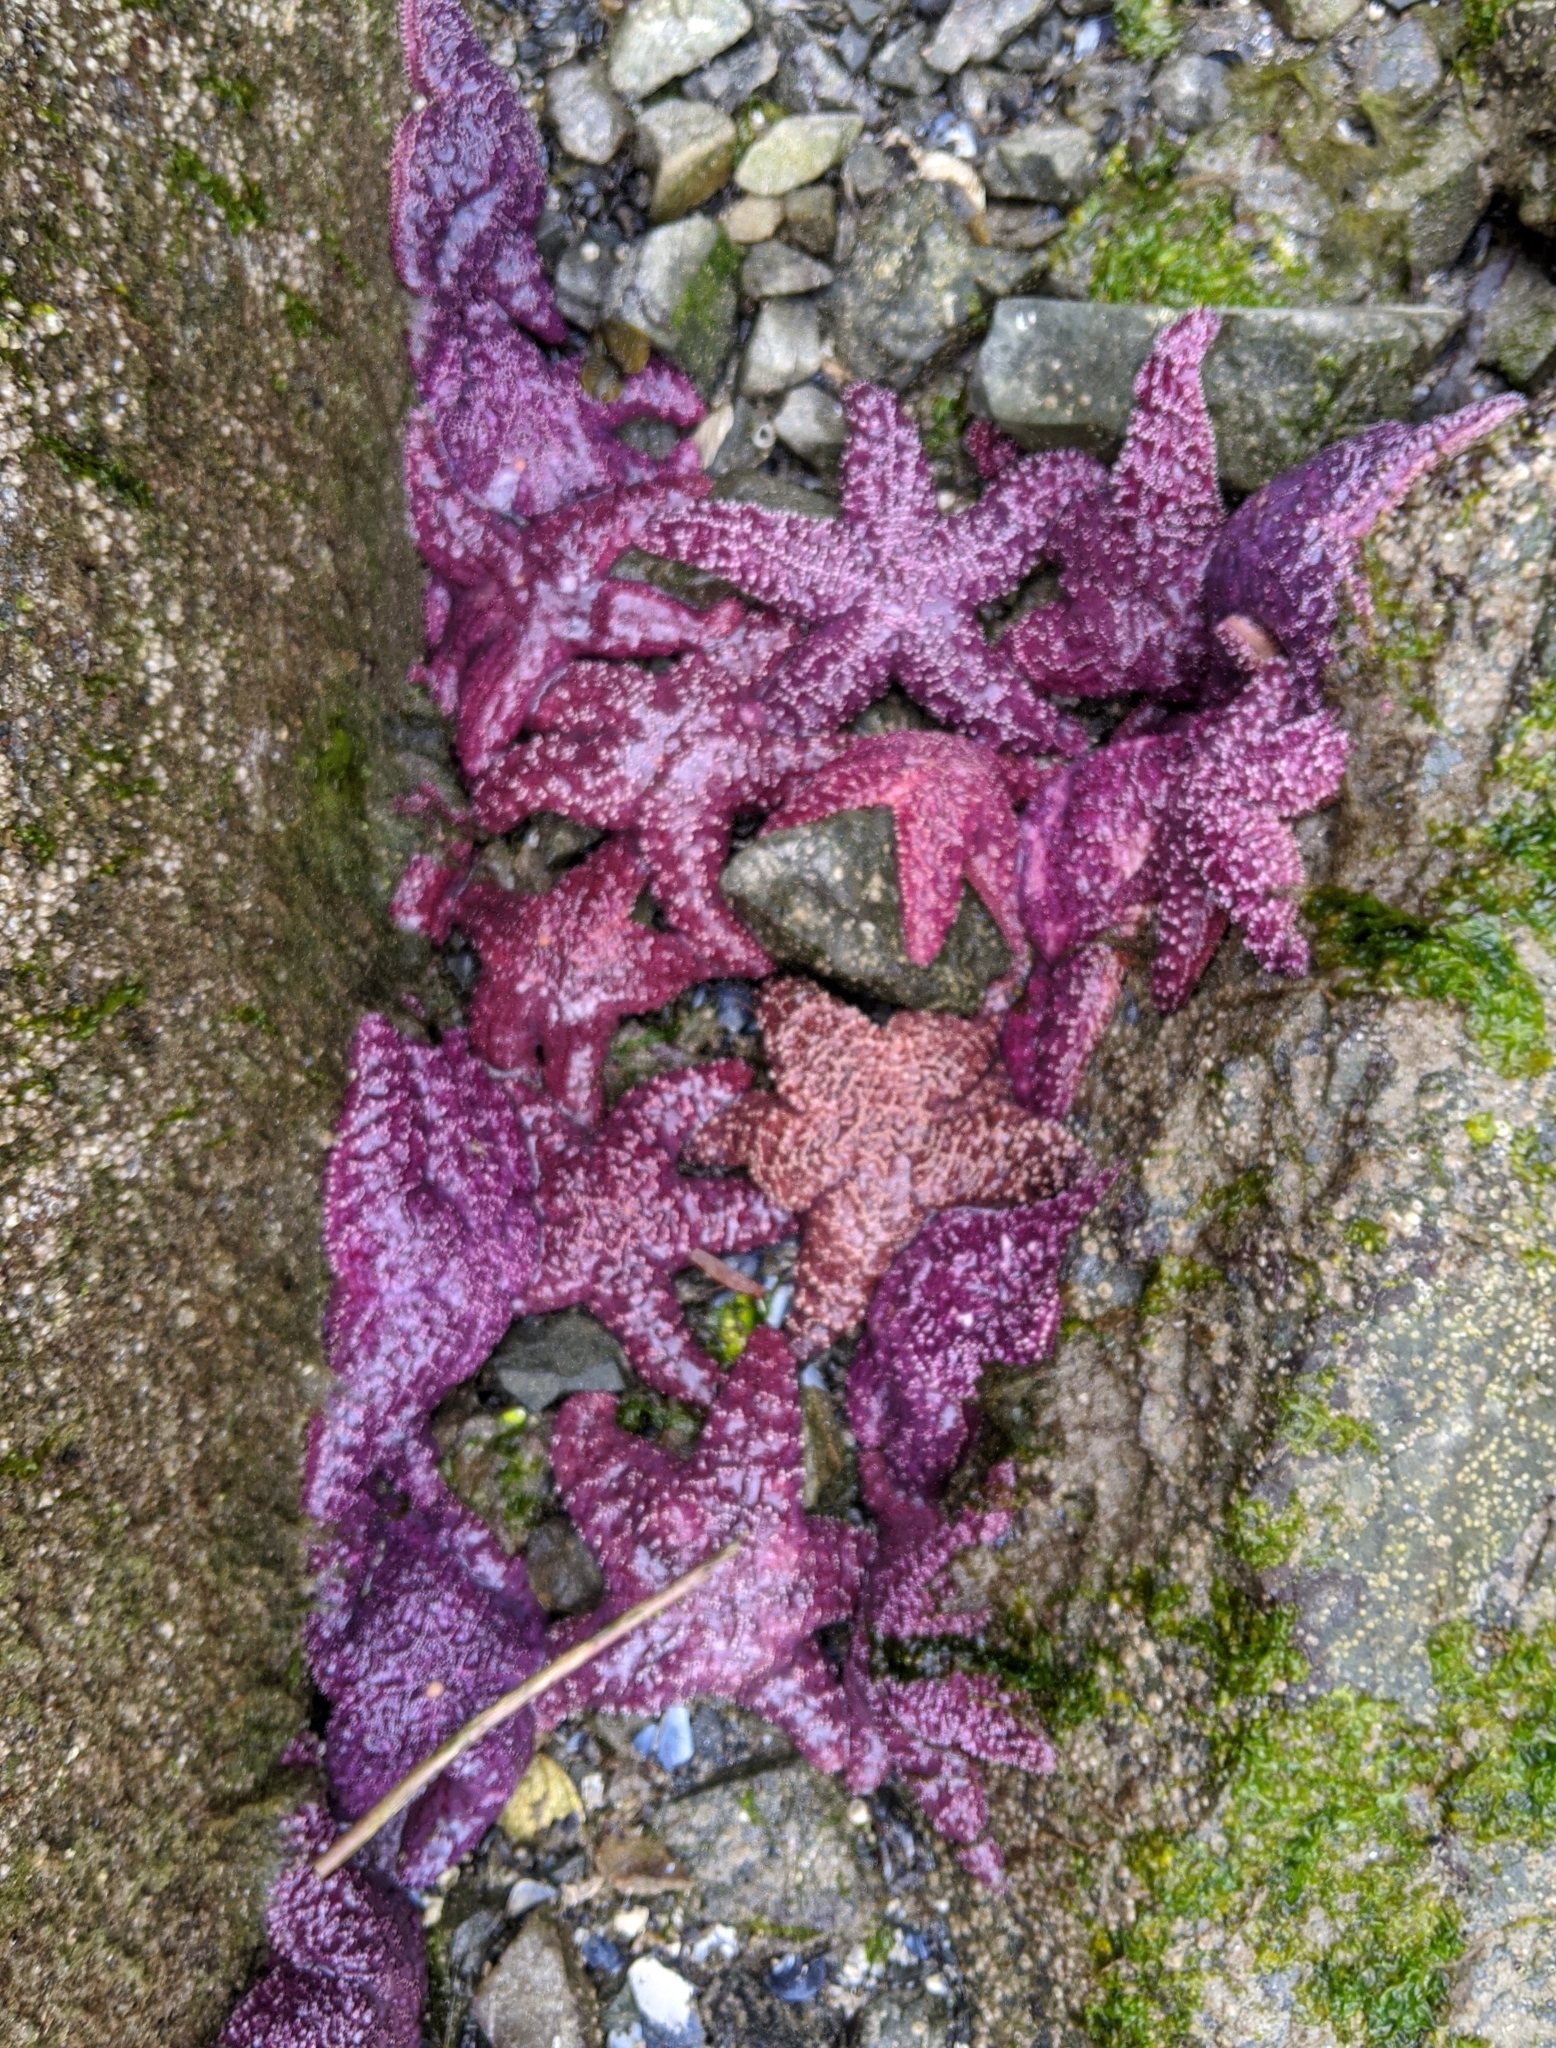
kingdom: Animalia
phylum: Echinodermata
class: Asteroidea
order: Forcipulatida
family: Asteriidae
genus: Pisaster
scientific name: Pisaster ochraceus
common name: Ochre stars
